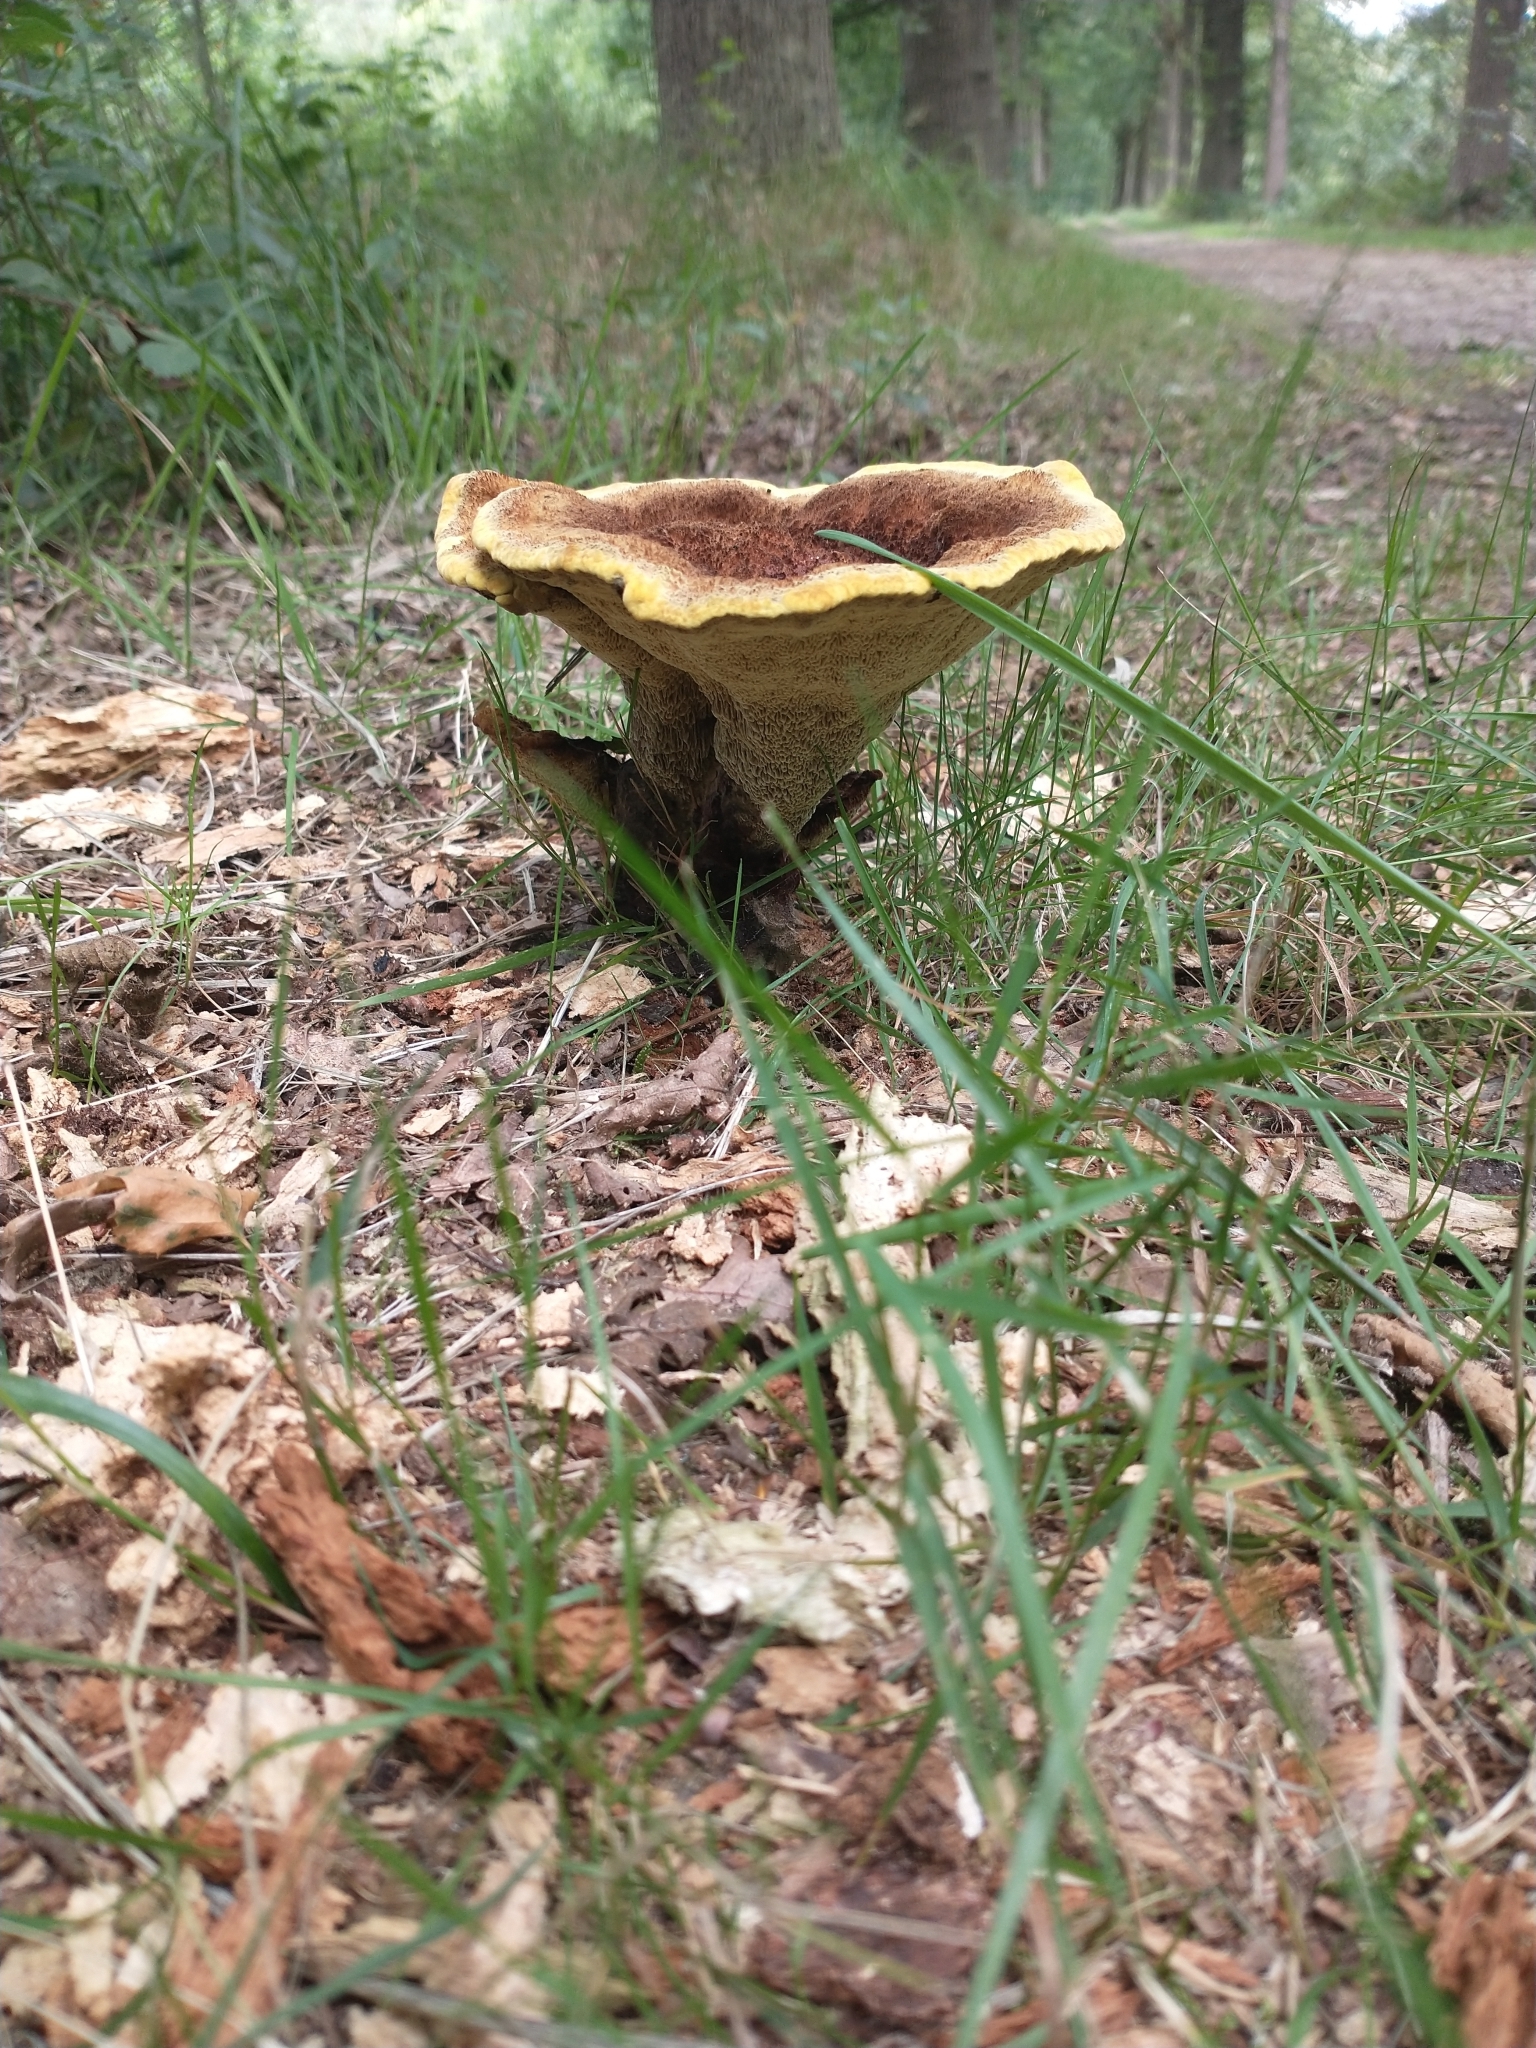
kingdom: Fungi
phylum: Basidiomycota
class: Agaricomycetes
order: Polyporales
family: Laetiporaceae
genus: Phaeolus
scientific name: Phaeolus schweinitzii
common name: Dyer's mazegill
